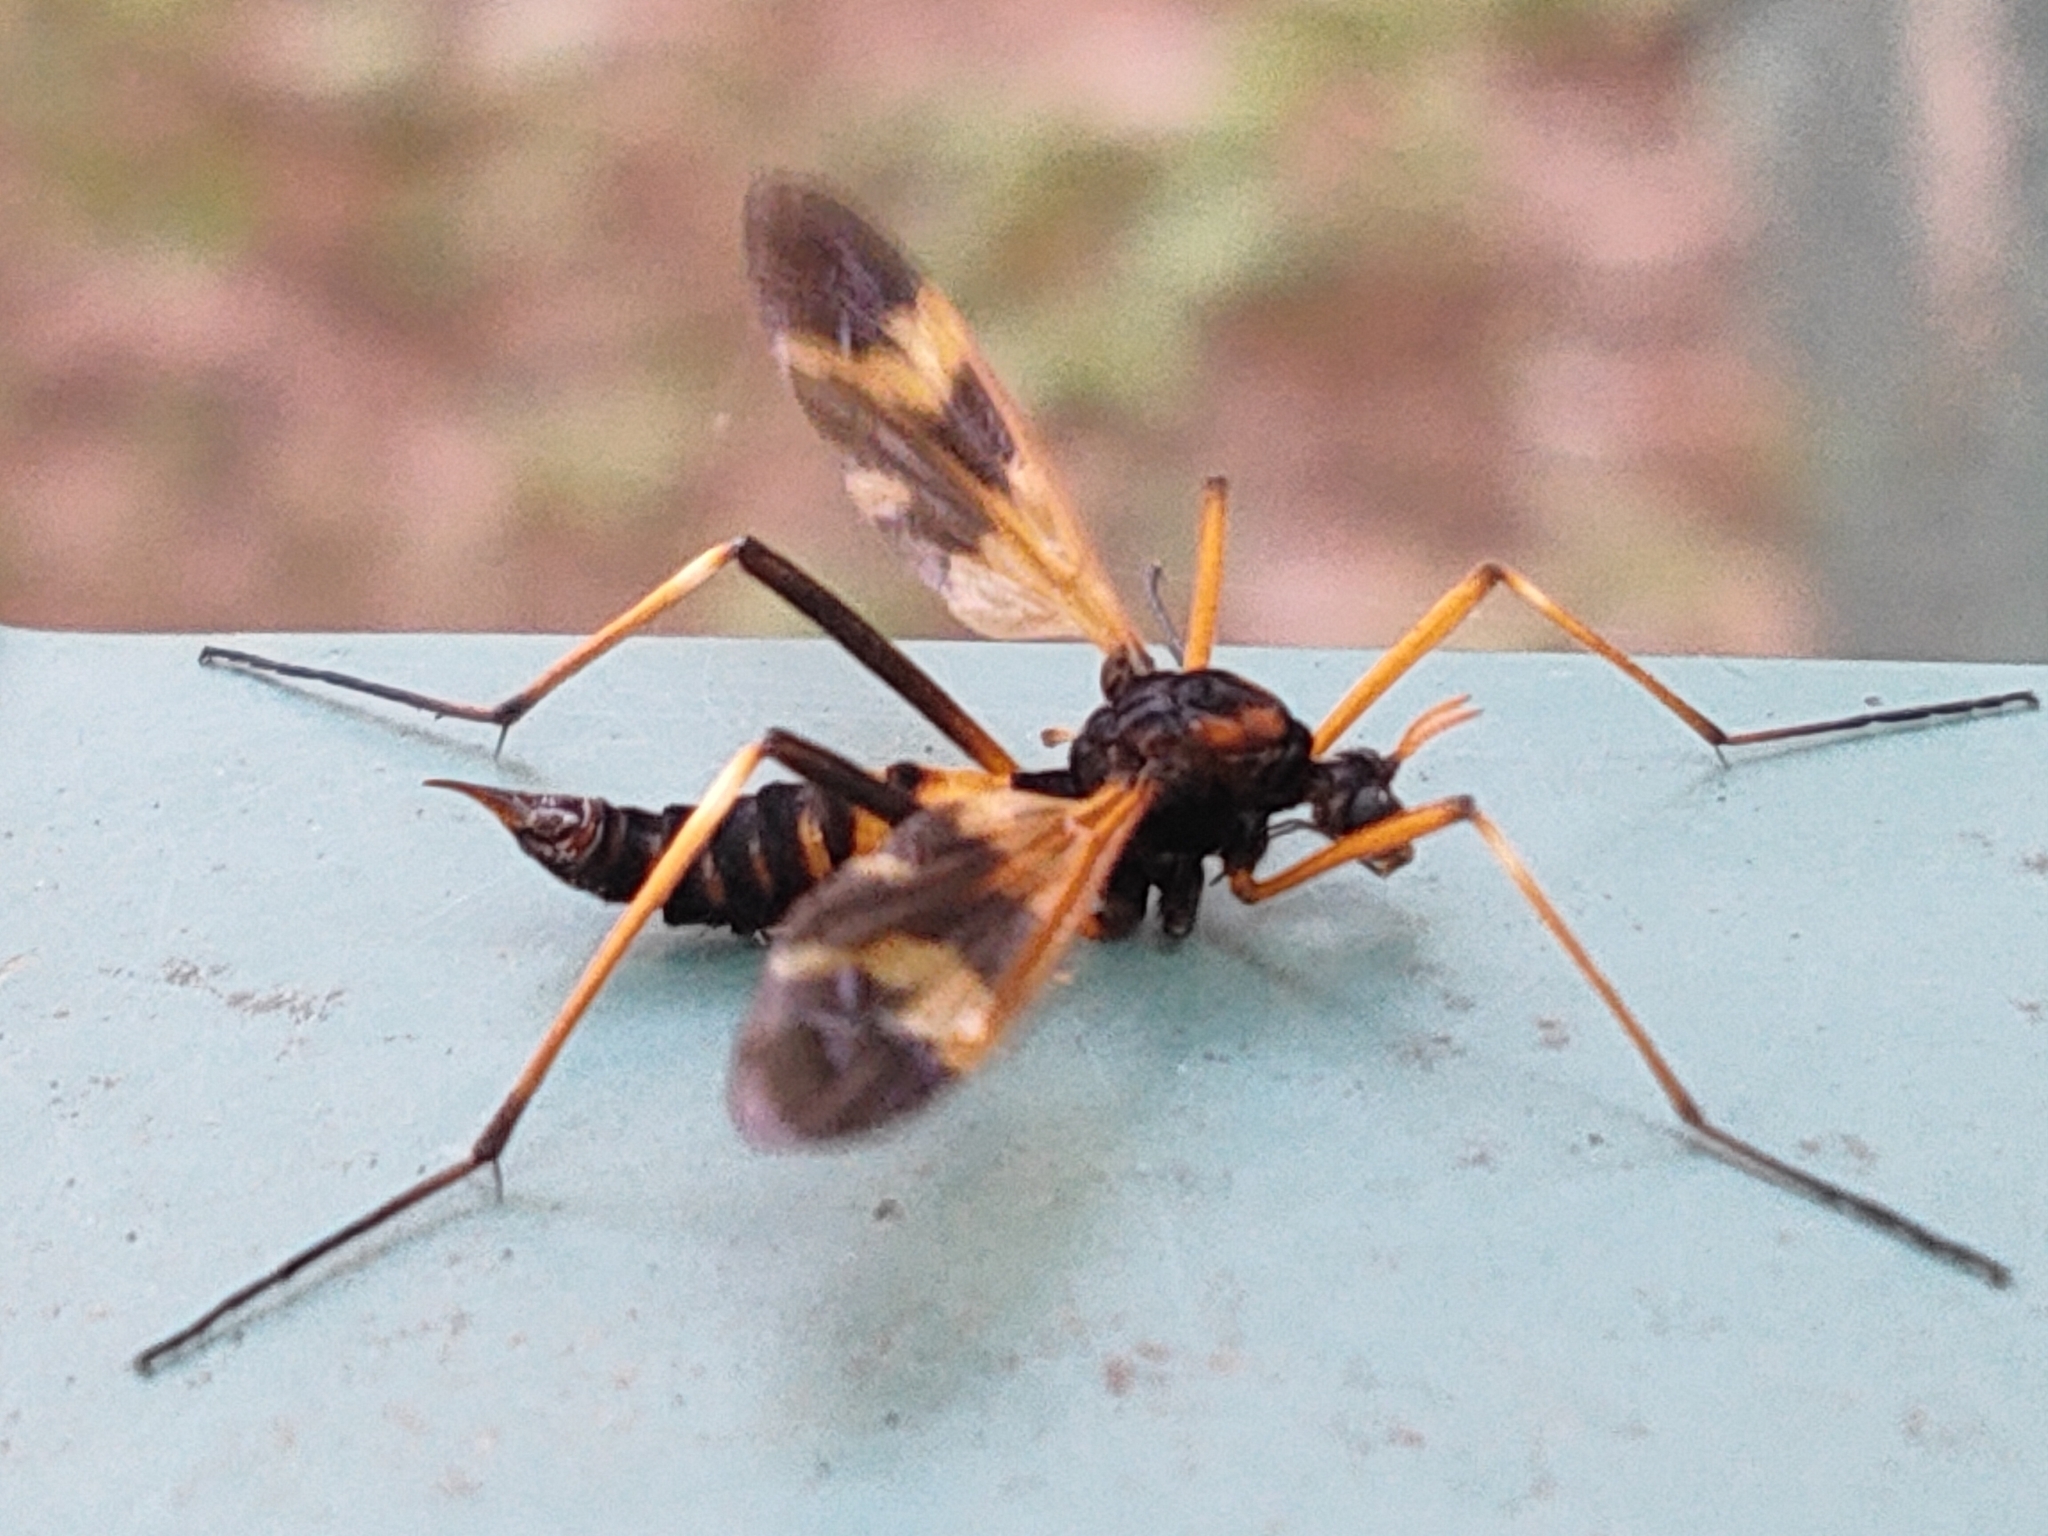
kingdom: Animalia
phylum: Arthropoda
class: Insecta
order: Diptera
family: Tipulidae
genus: Pselliophora
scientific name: Pselliophora bifascipennis
